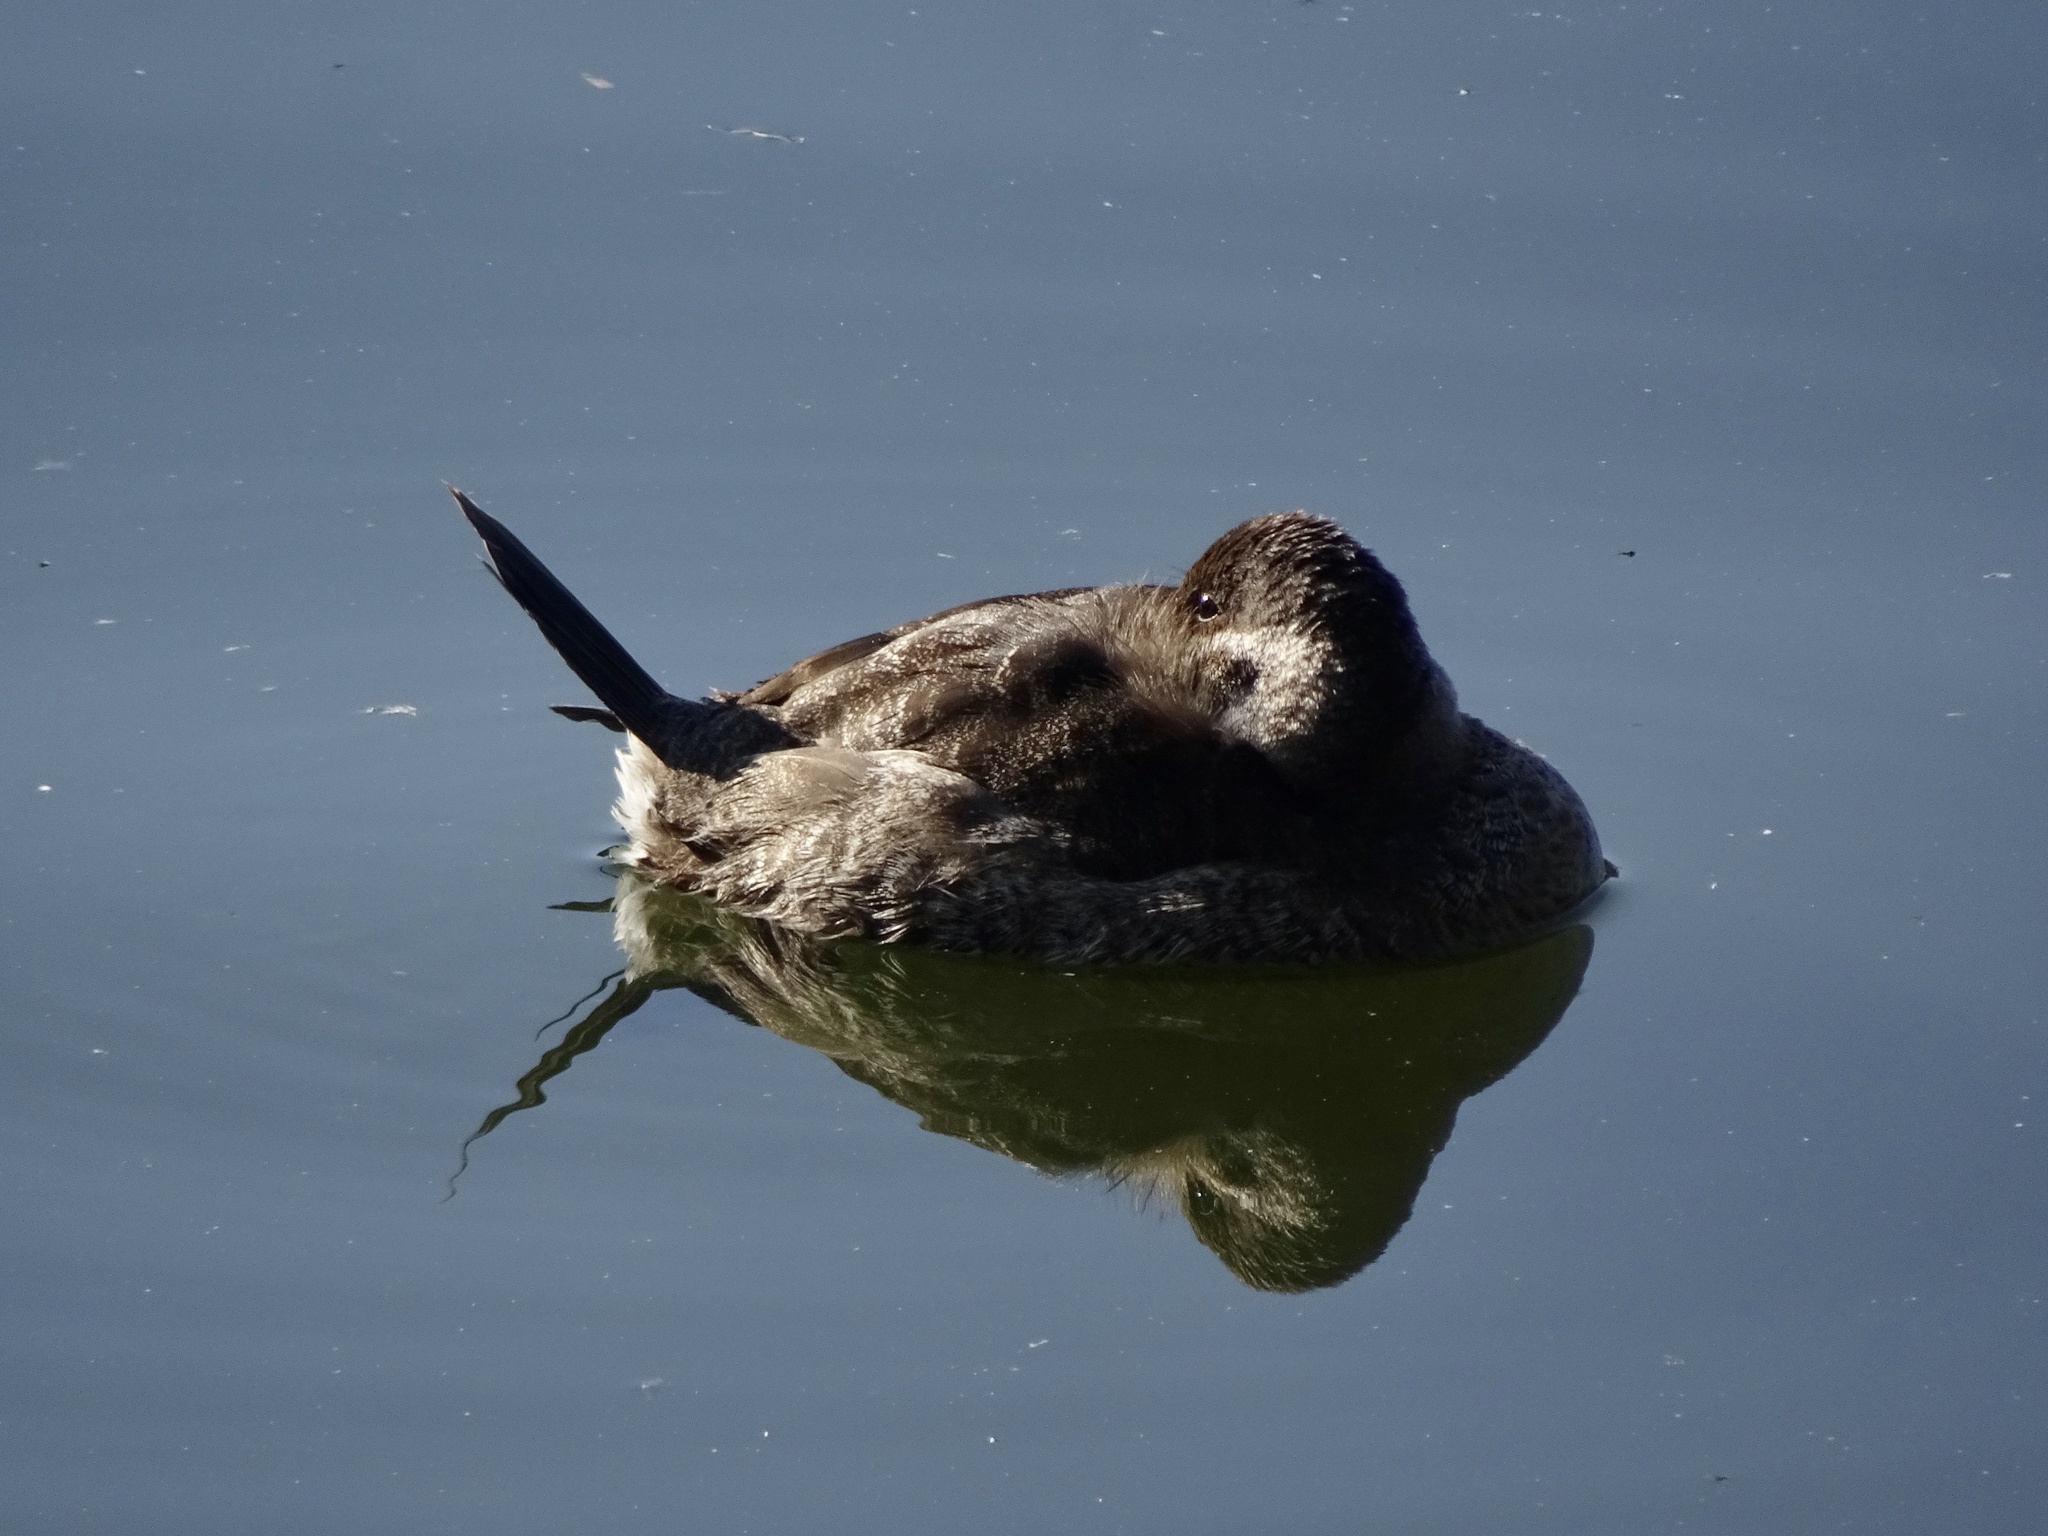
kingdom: Animalia
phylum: Chordata
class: Aves
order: Anseriformes
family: Anatidae
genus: Oxyura
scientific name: Oxyura jamaicensis
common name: Ruddy duck
